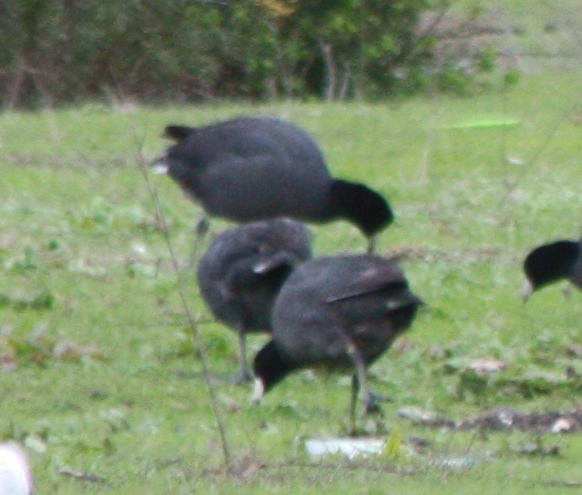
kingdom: Animalia
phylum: Chordata
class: Aves
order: Gruiformes
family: Rallidae
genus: Fulica
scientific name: Fulica americana
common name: American coot
